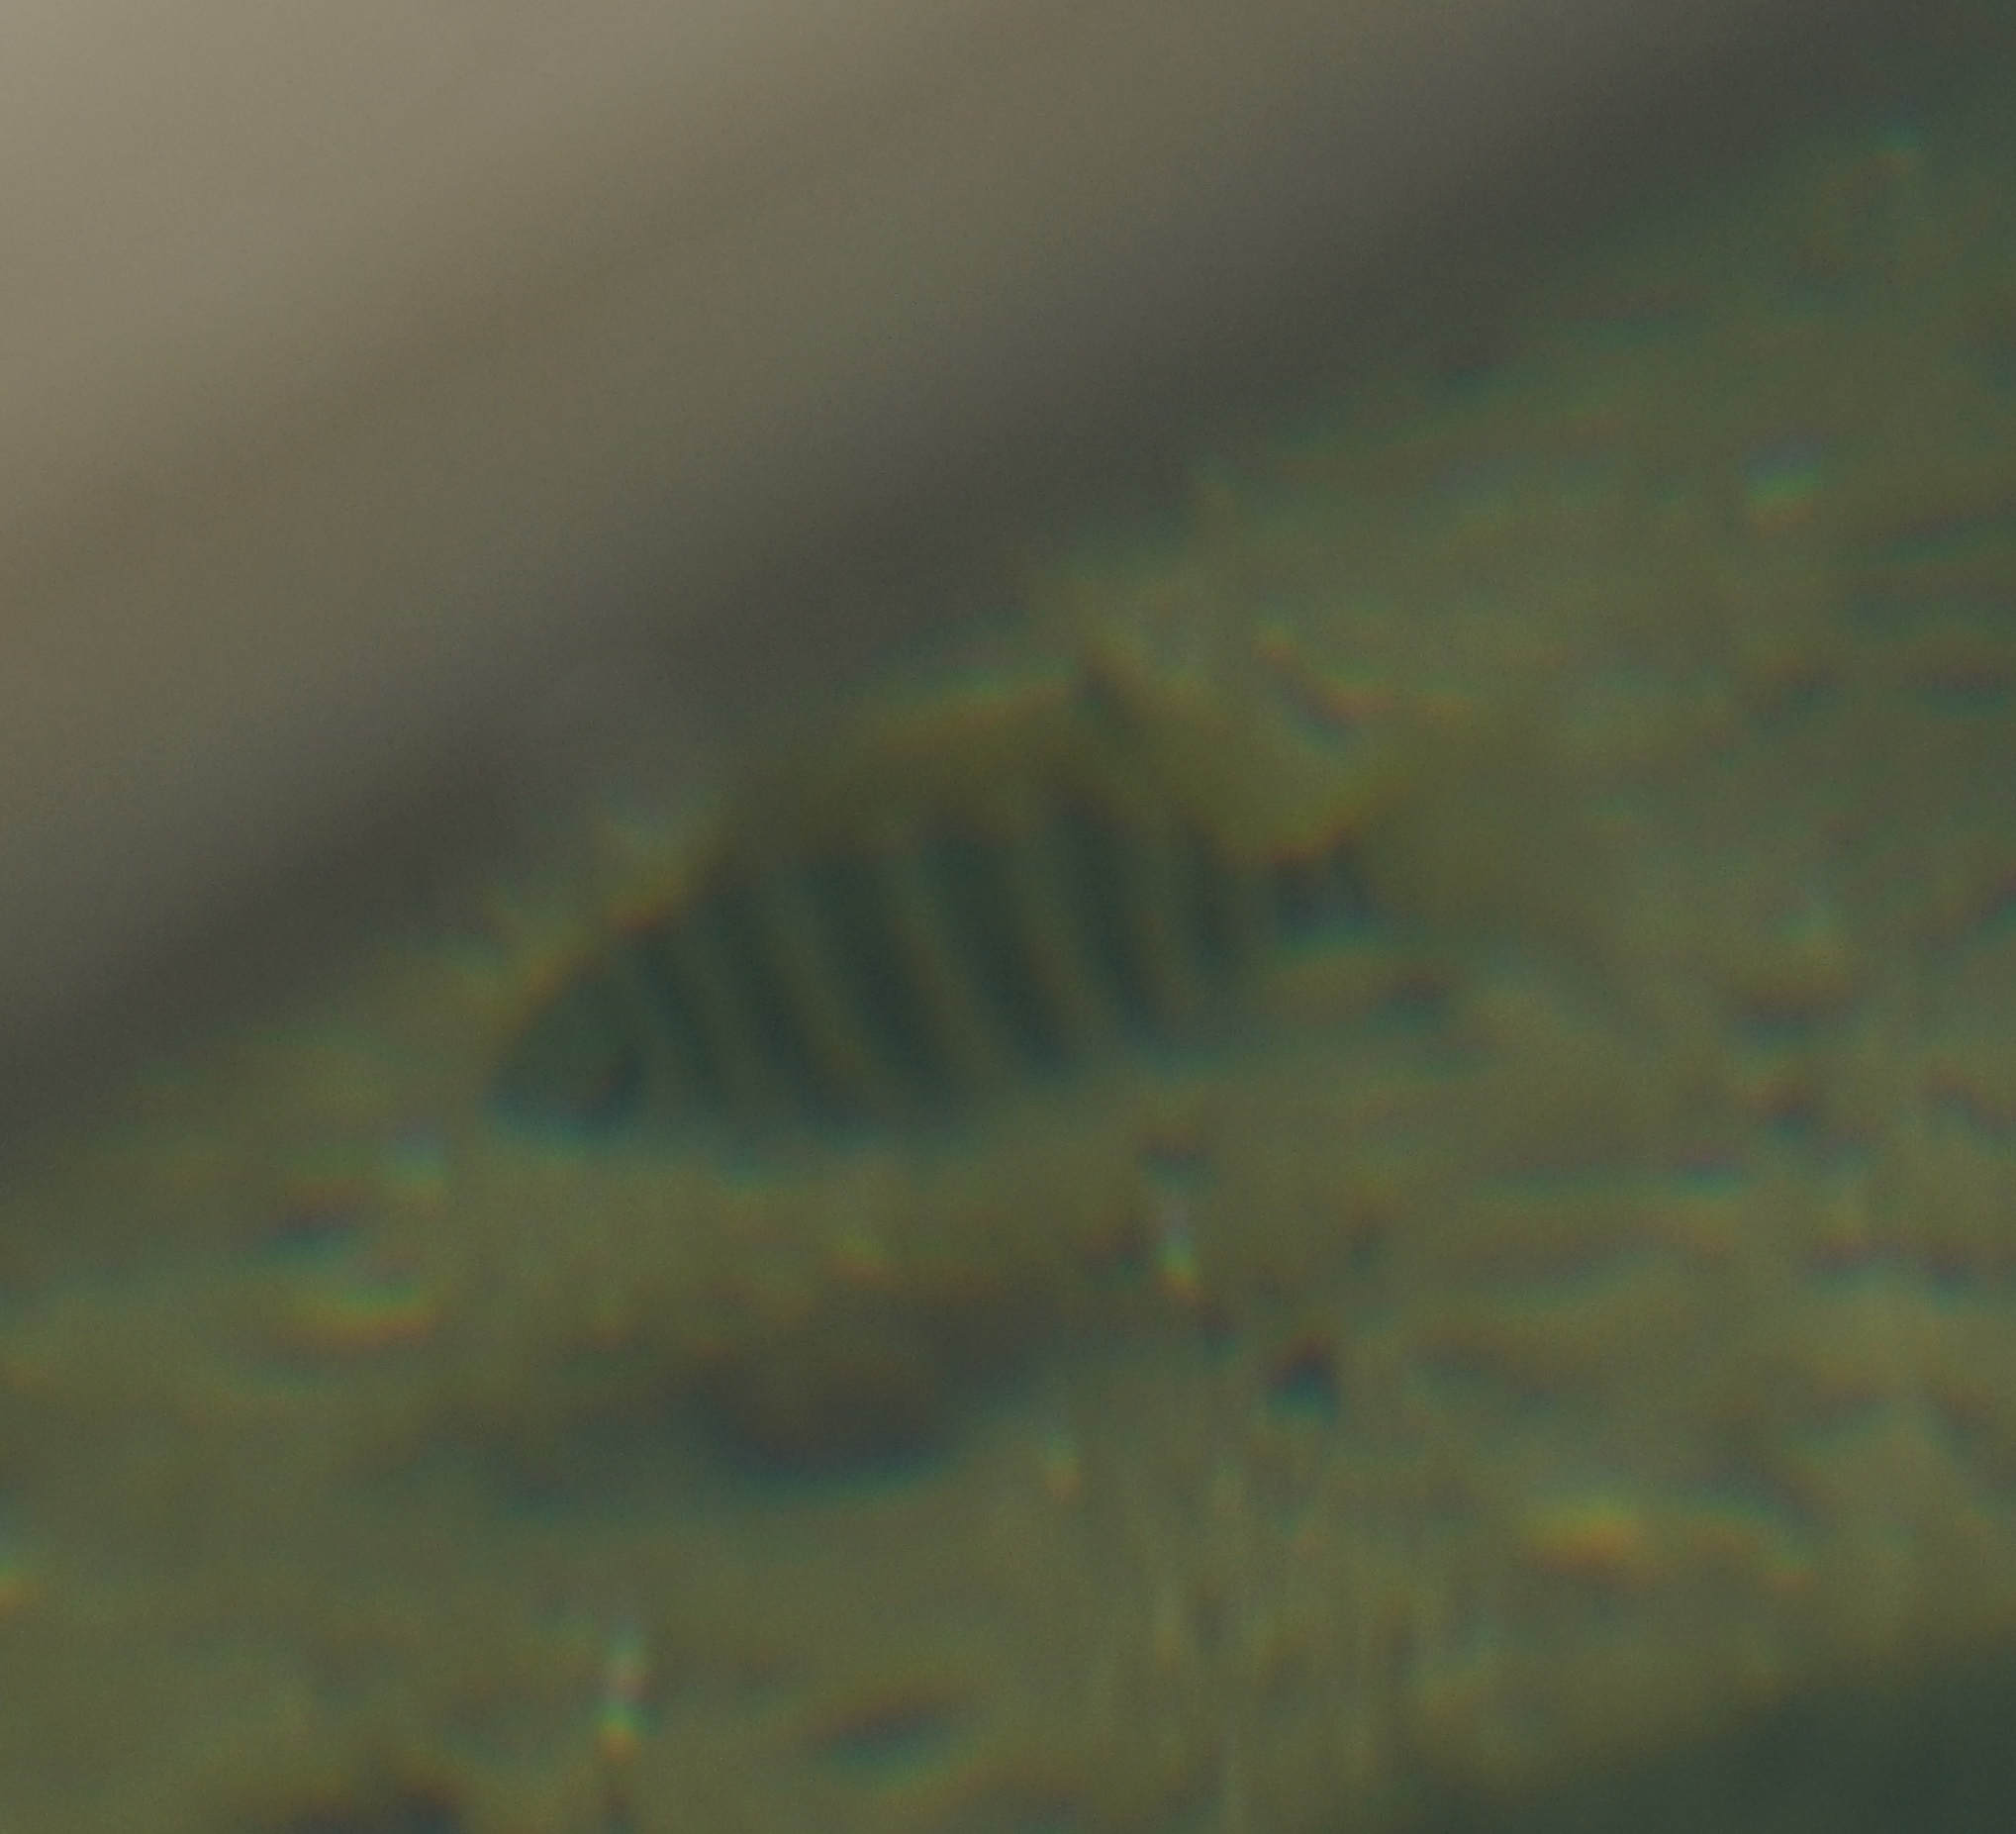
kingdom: Animalia
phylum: Chordata
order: Perciformes
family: Cichlidae
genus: Pelmatolapia
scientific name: Pelmatolapia mariae
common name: Spotted tilapia
